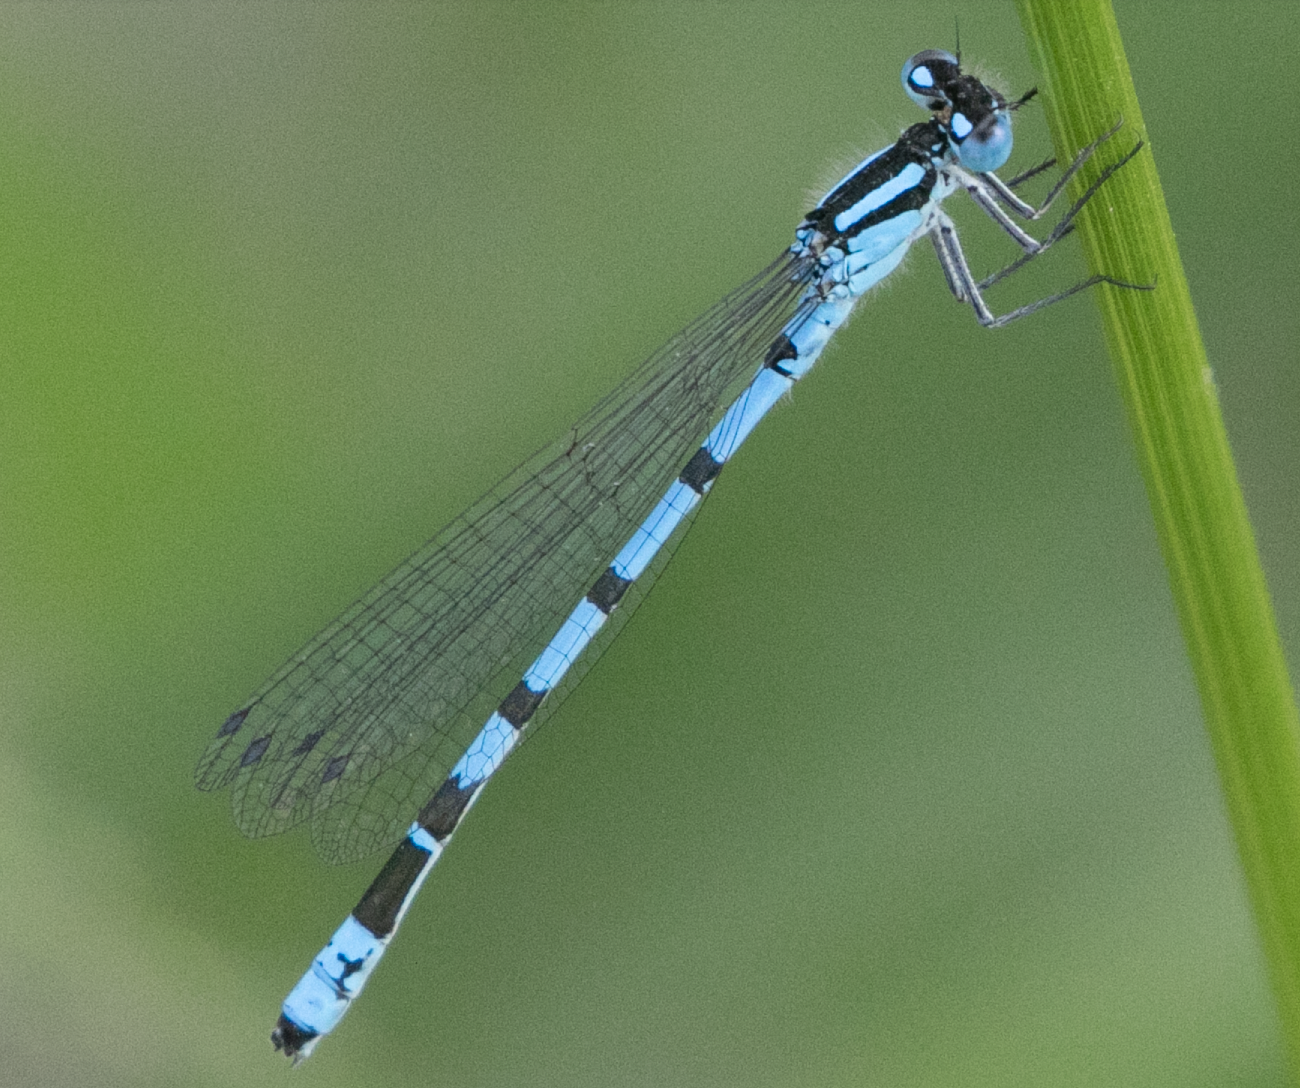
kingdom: Animalia
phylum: Arthropoda
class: Insecta
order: Odonata
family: Coenagrionidae
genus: Enallagma
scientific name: Enallagma cyathigerum
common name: Common blue damselfly
